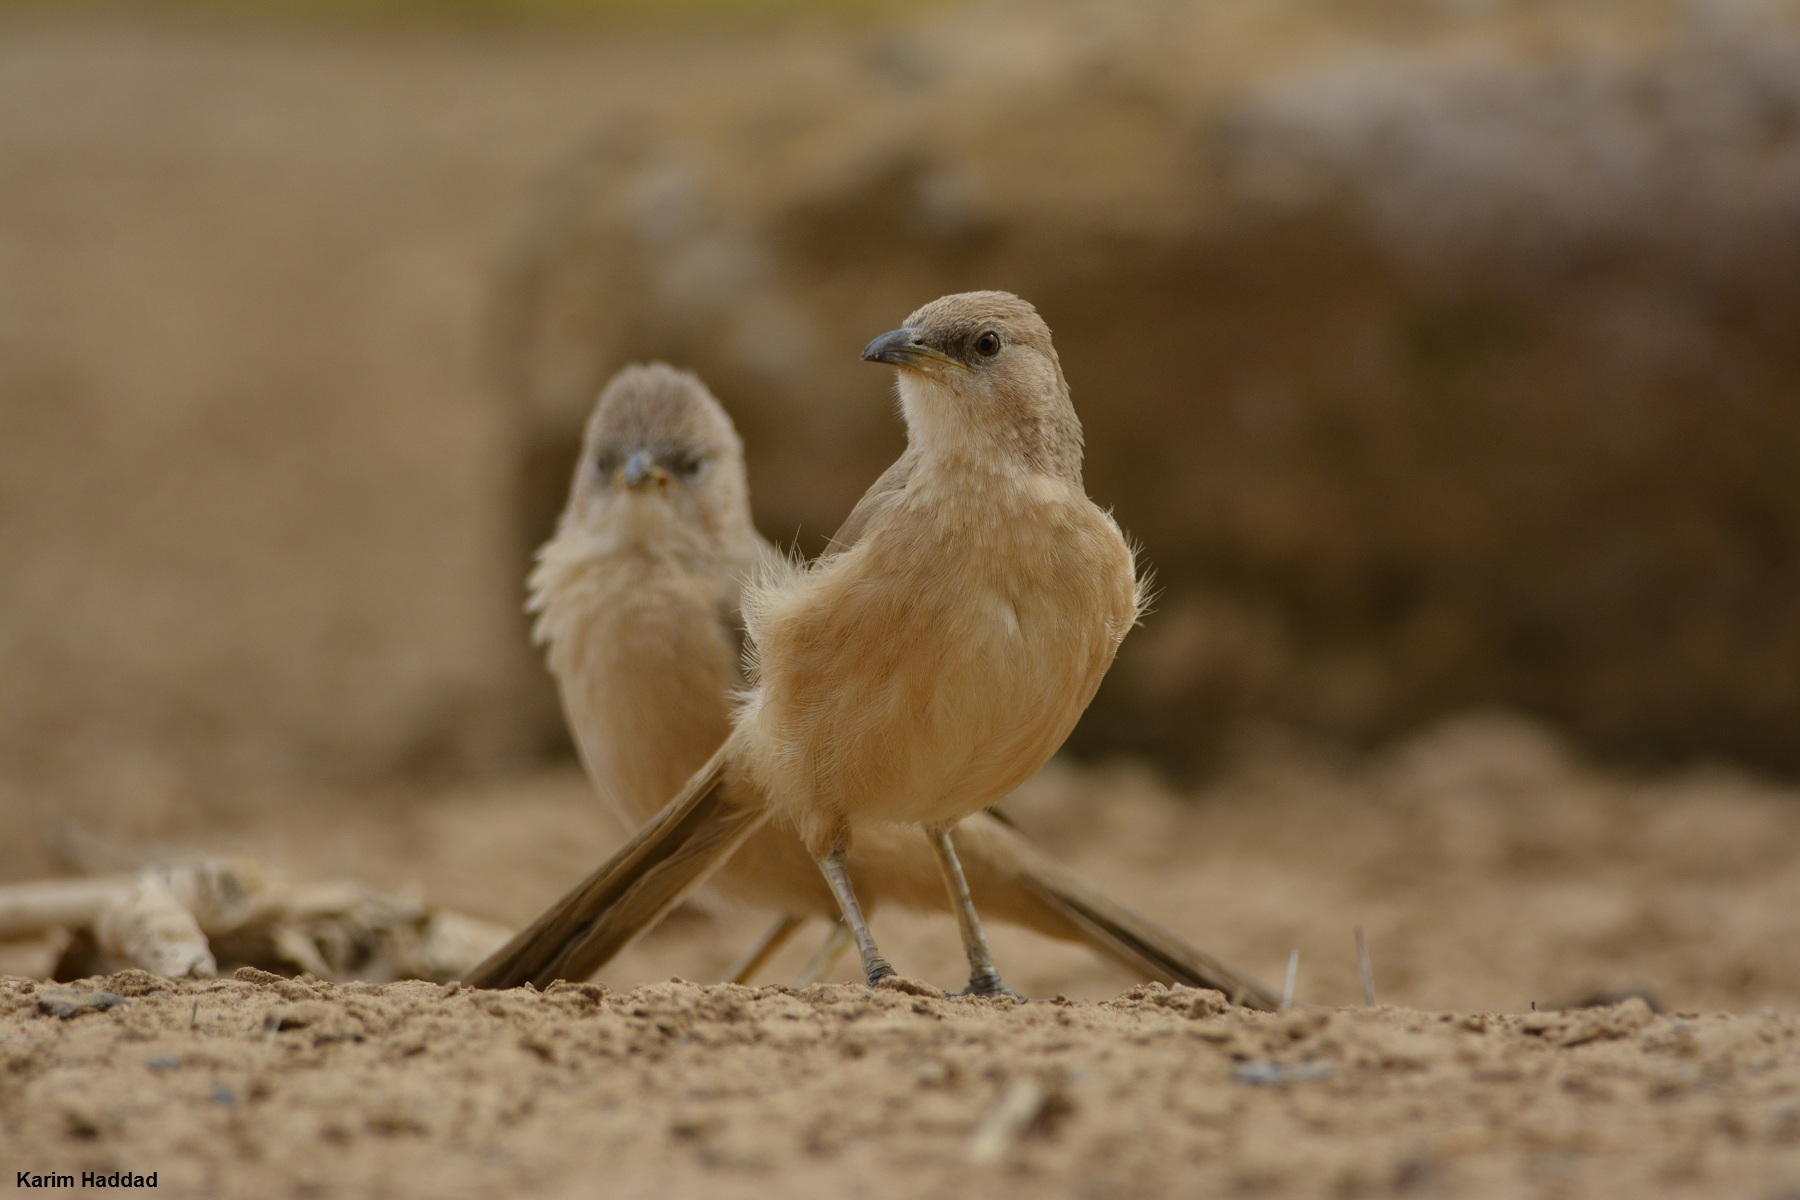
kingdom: Animalia
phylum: Chordata
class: Aves
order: Passeriformes
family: Leiothrichidae
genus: Turdoides
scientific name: Turdoides fulva
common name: Fulvous babbler
